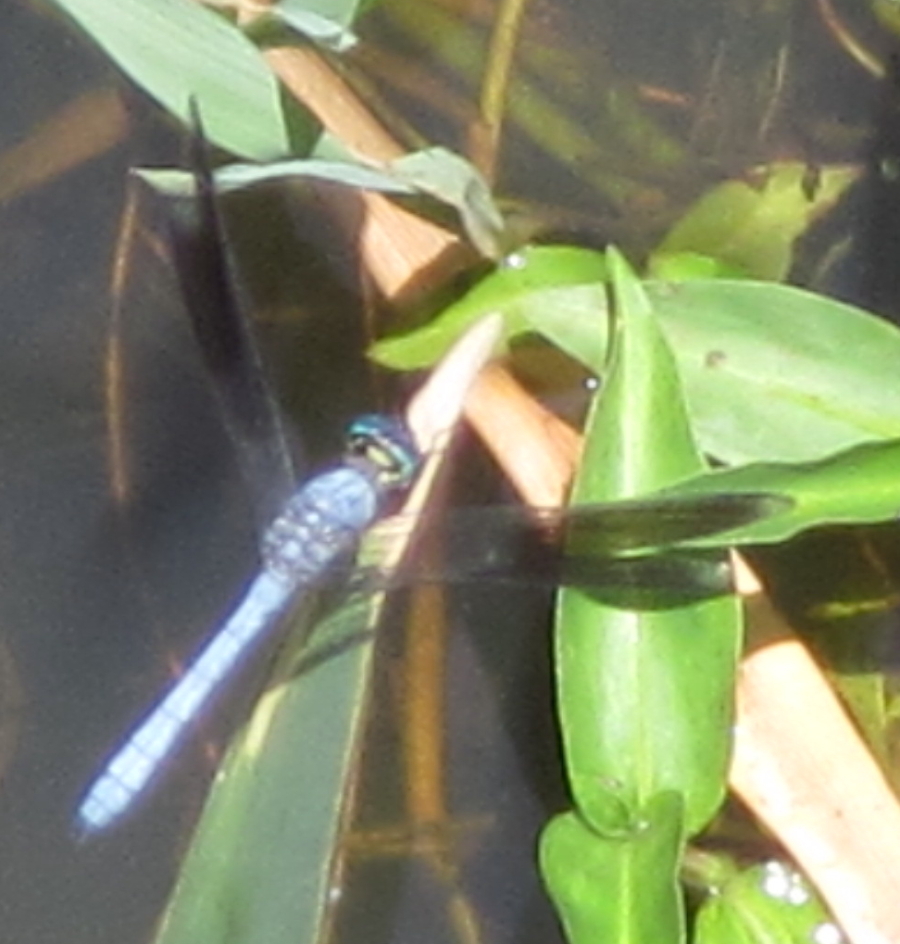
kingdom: Animalia
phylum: Arthropoda
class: Insecta
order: Odonata
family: Libellulidae
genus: Tetrathemis
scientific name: Tetrathemis polleni
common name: Black-splashed elf
